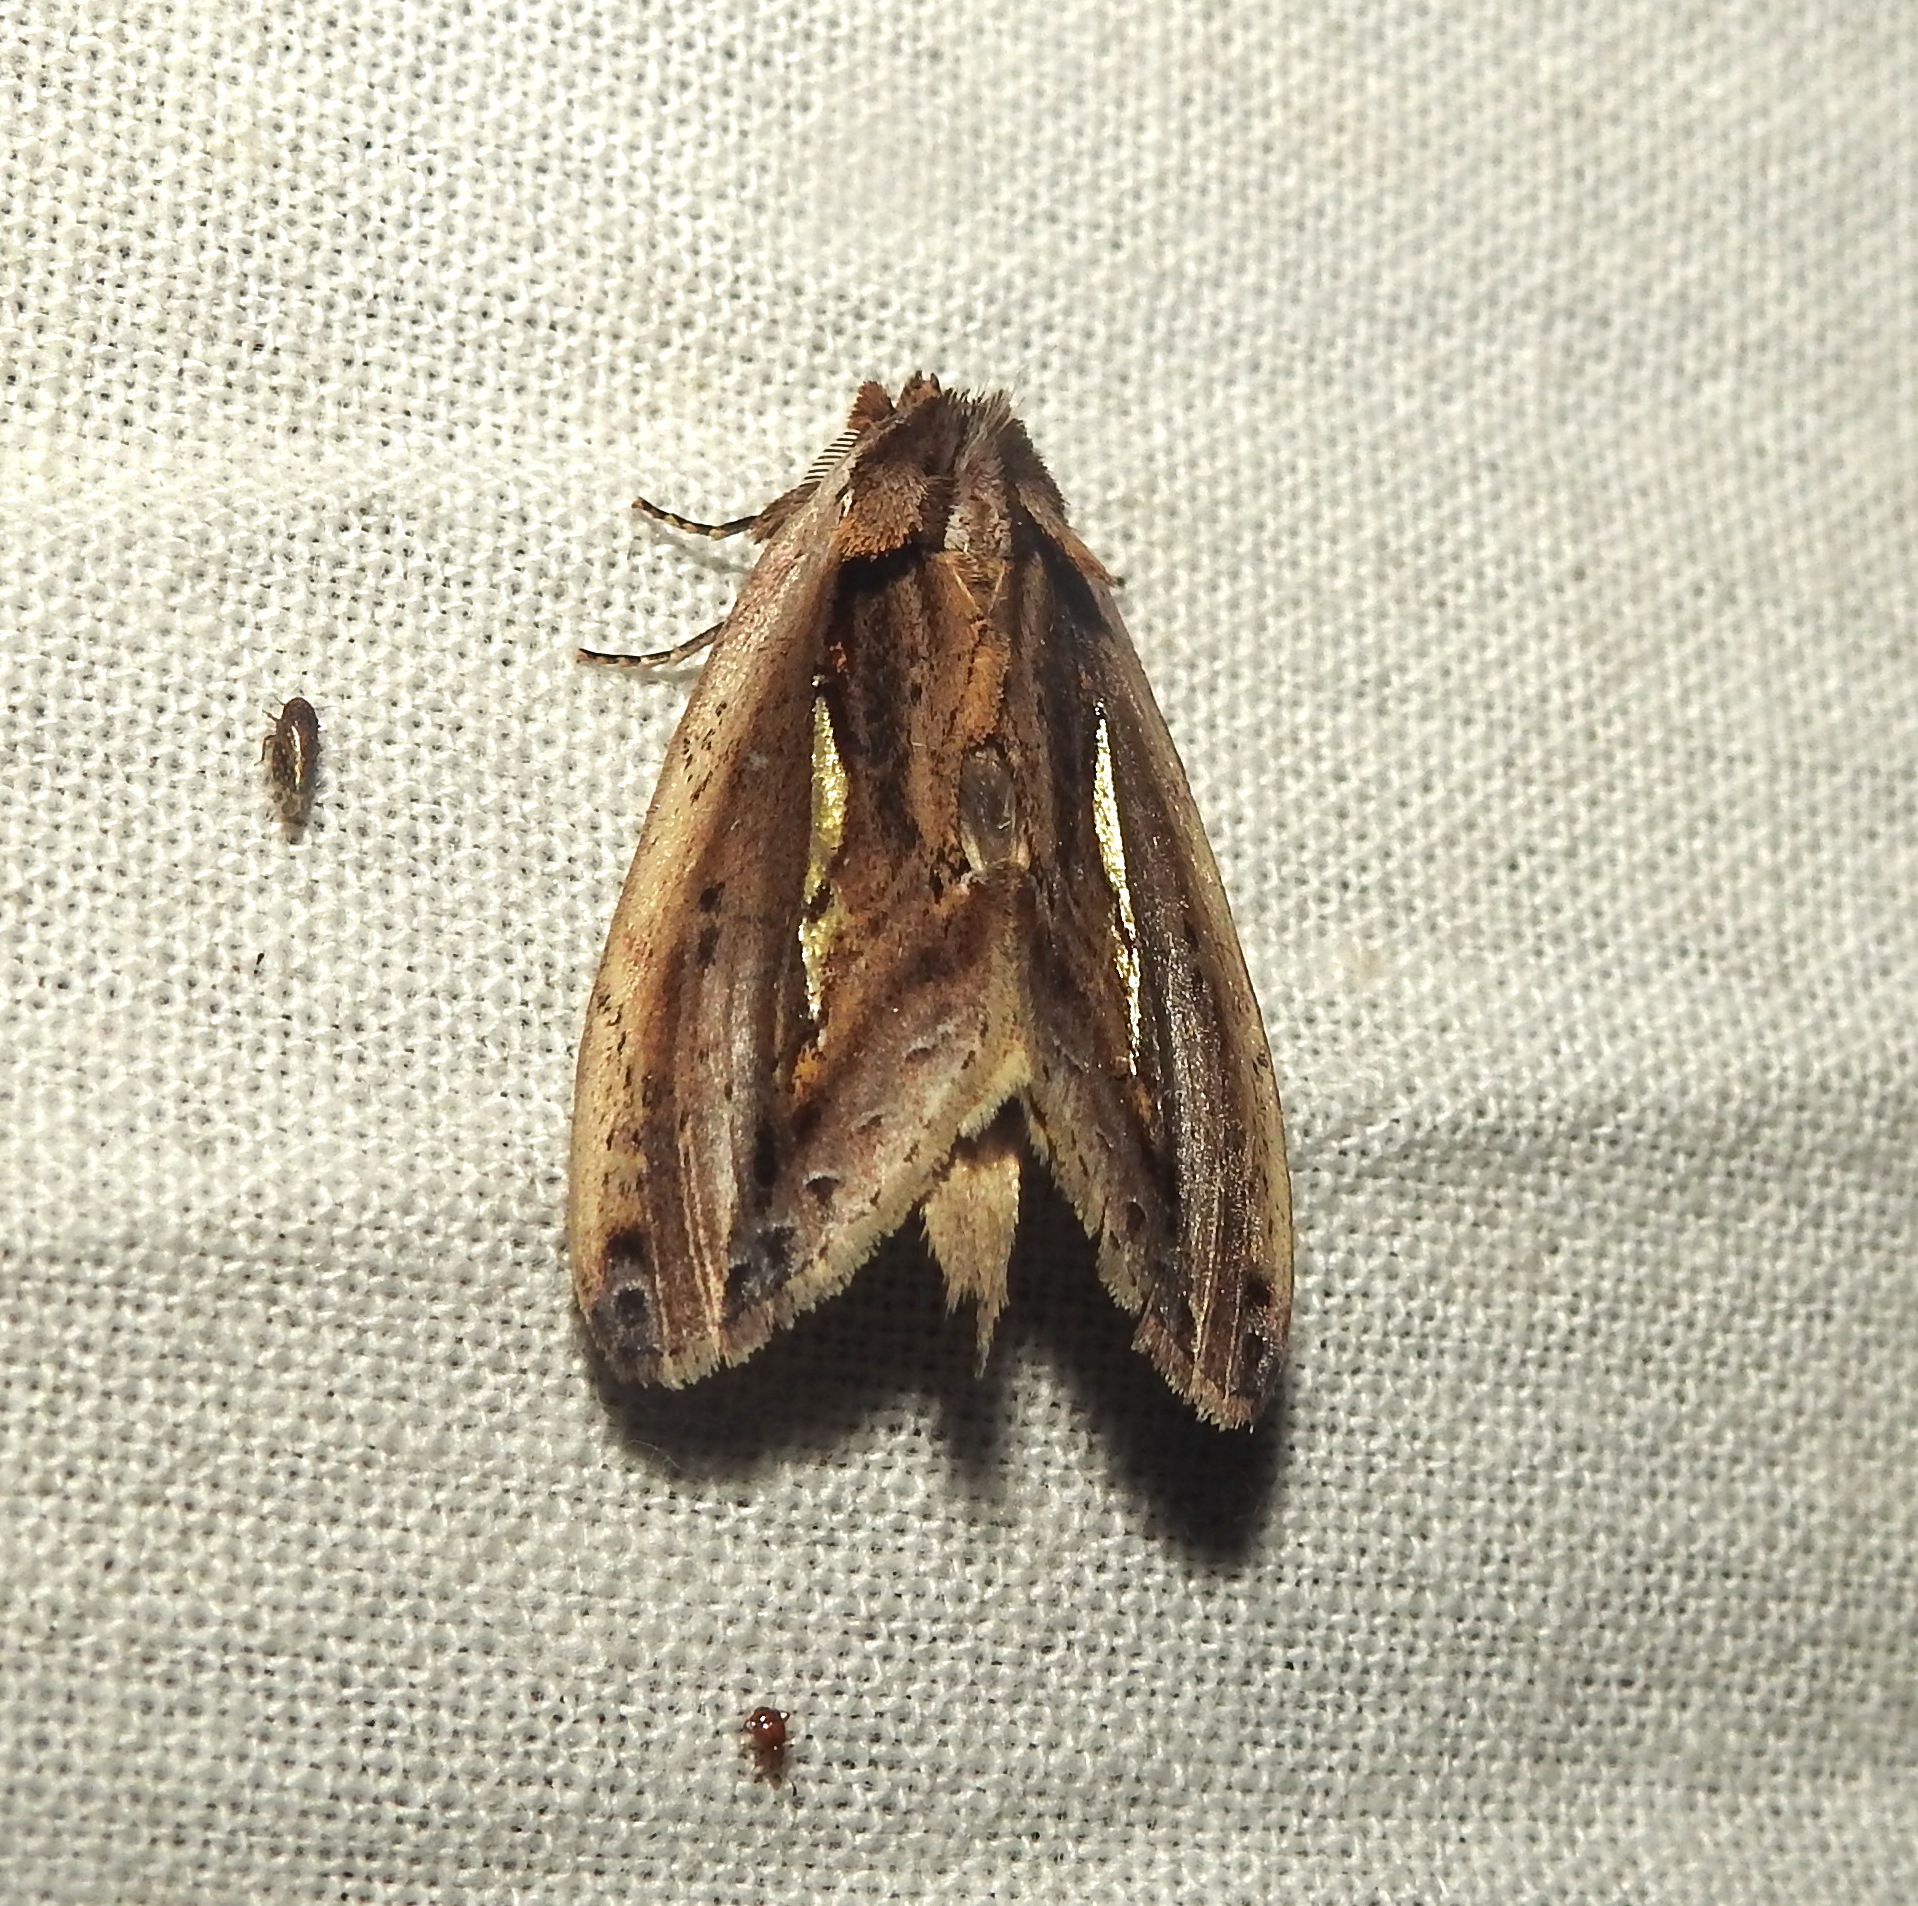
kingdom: Animalia
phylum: Arthropoda
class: Insecta
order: Lepidoptera
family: Notodontidae
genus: Rosama
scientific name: Rosama auritracta
